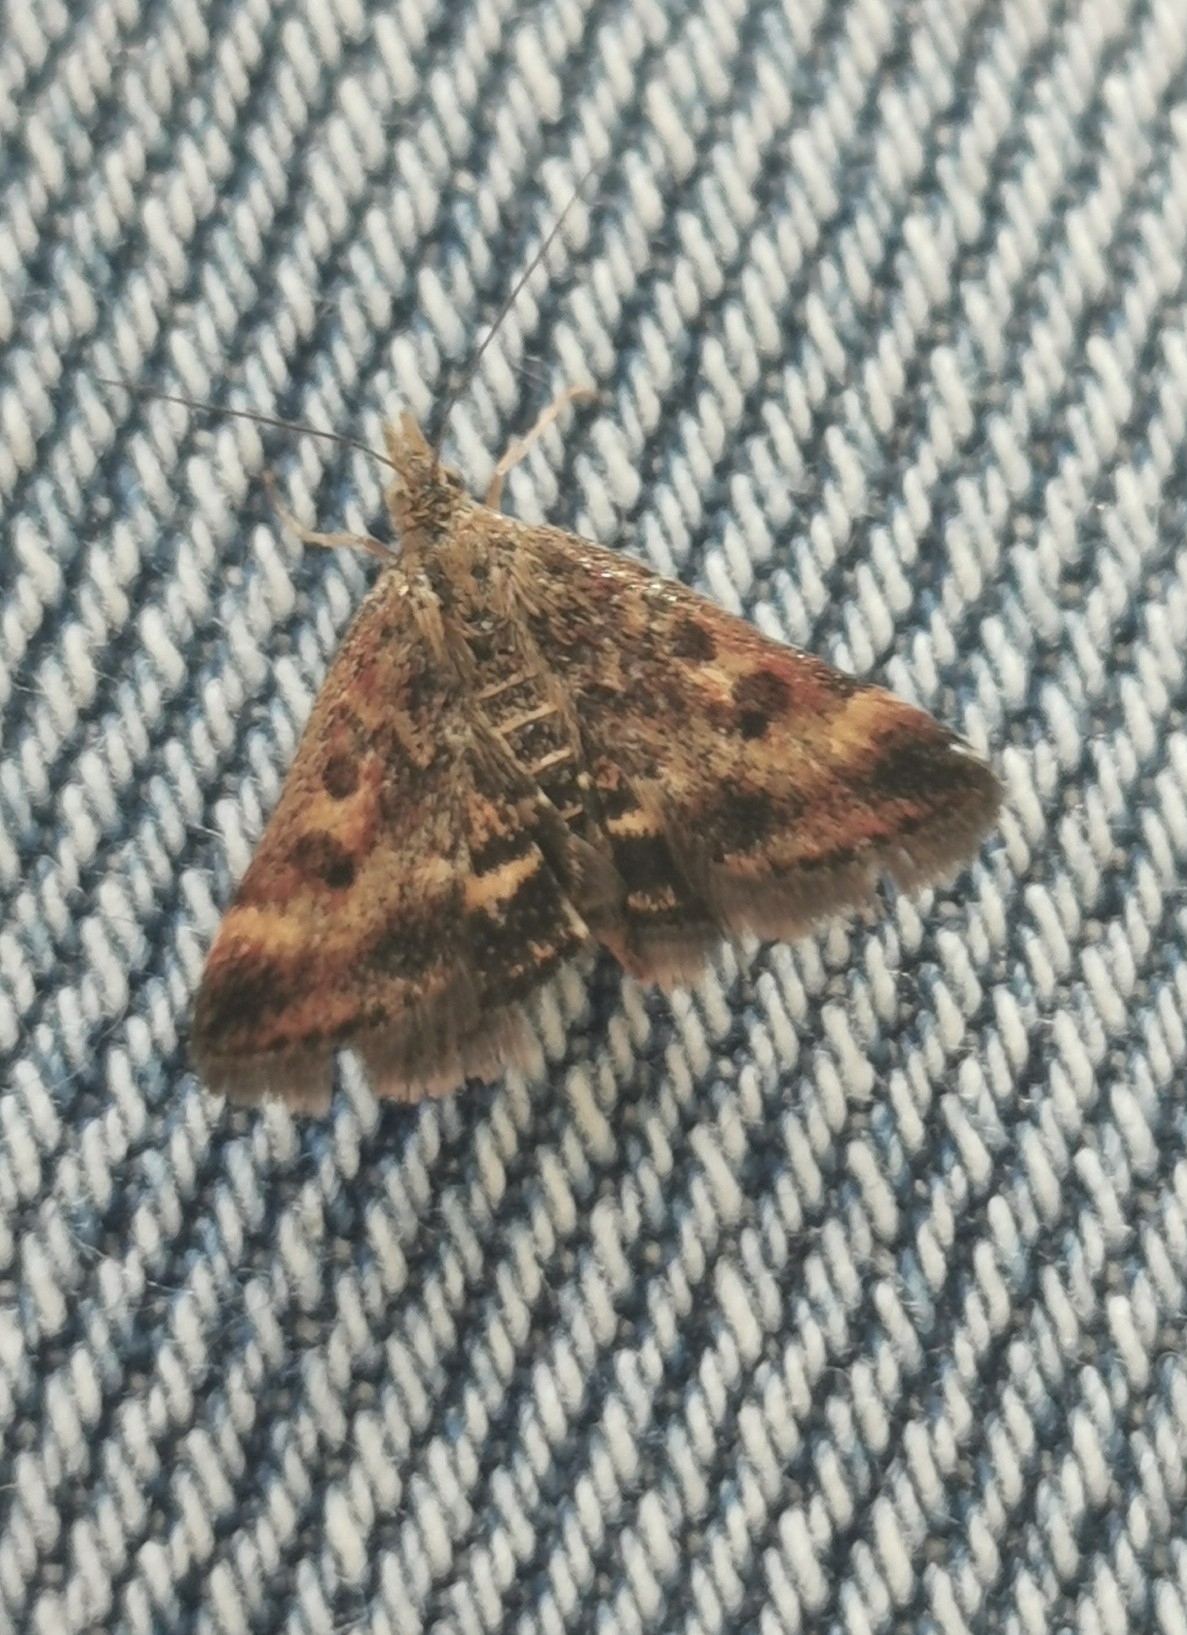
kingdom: Animalia
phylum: Arthropoda
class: Insecta
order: Lepidoptera
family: Crambidae
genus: Pyrausta
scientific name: Pyrausta despicata
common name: Straw-barred pearl
